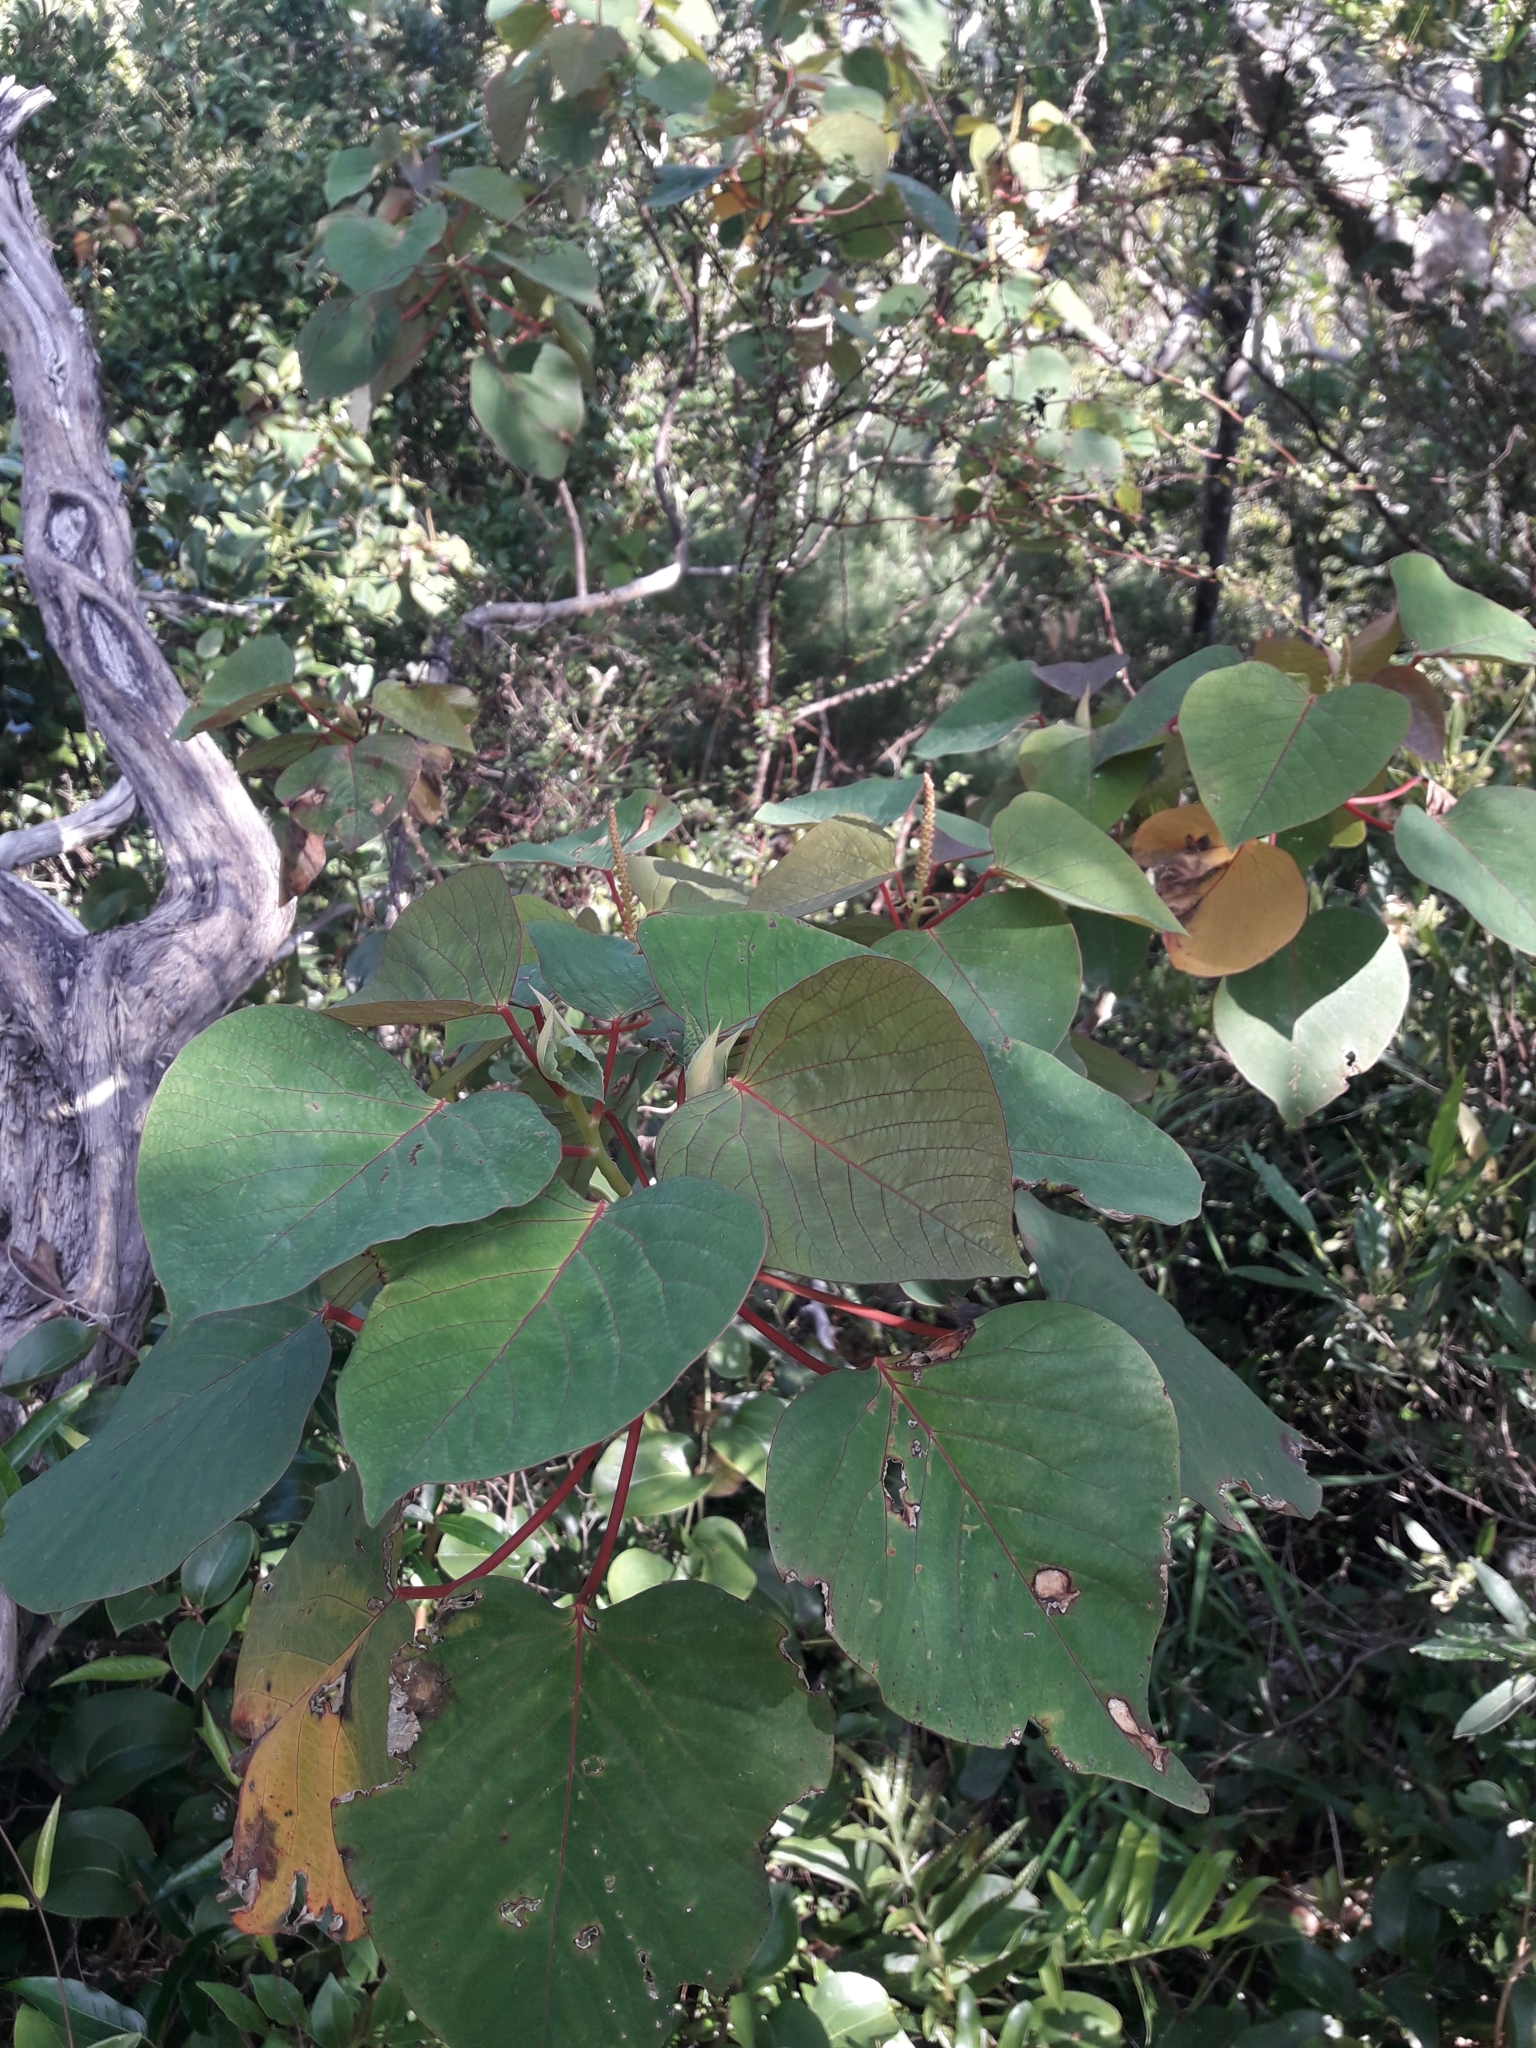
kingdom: Plantae
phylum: Tracheophyta
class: Magnoliopsida
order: Malpighiales
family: Euphorbiaceae
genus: Homalanthus
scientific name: Homalanthus populifolius
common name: Queensland poplar
